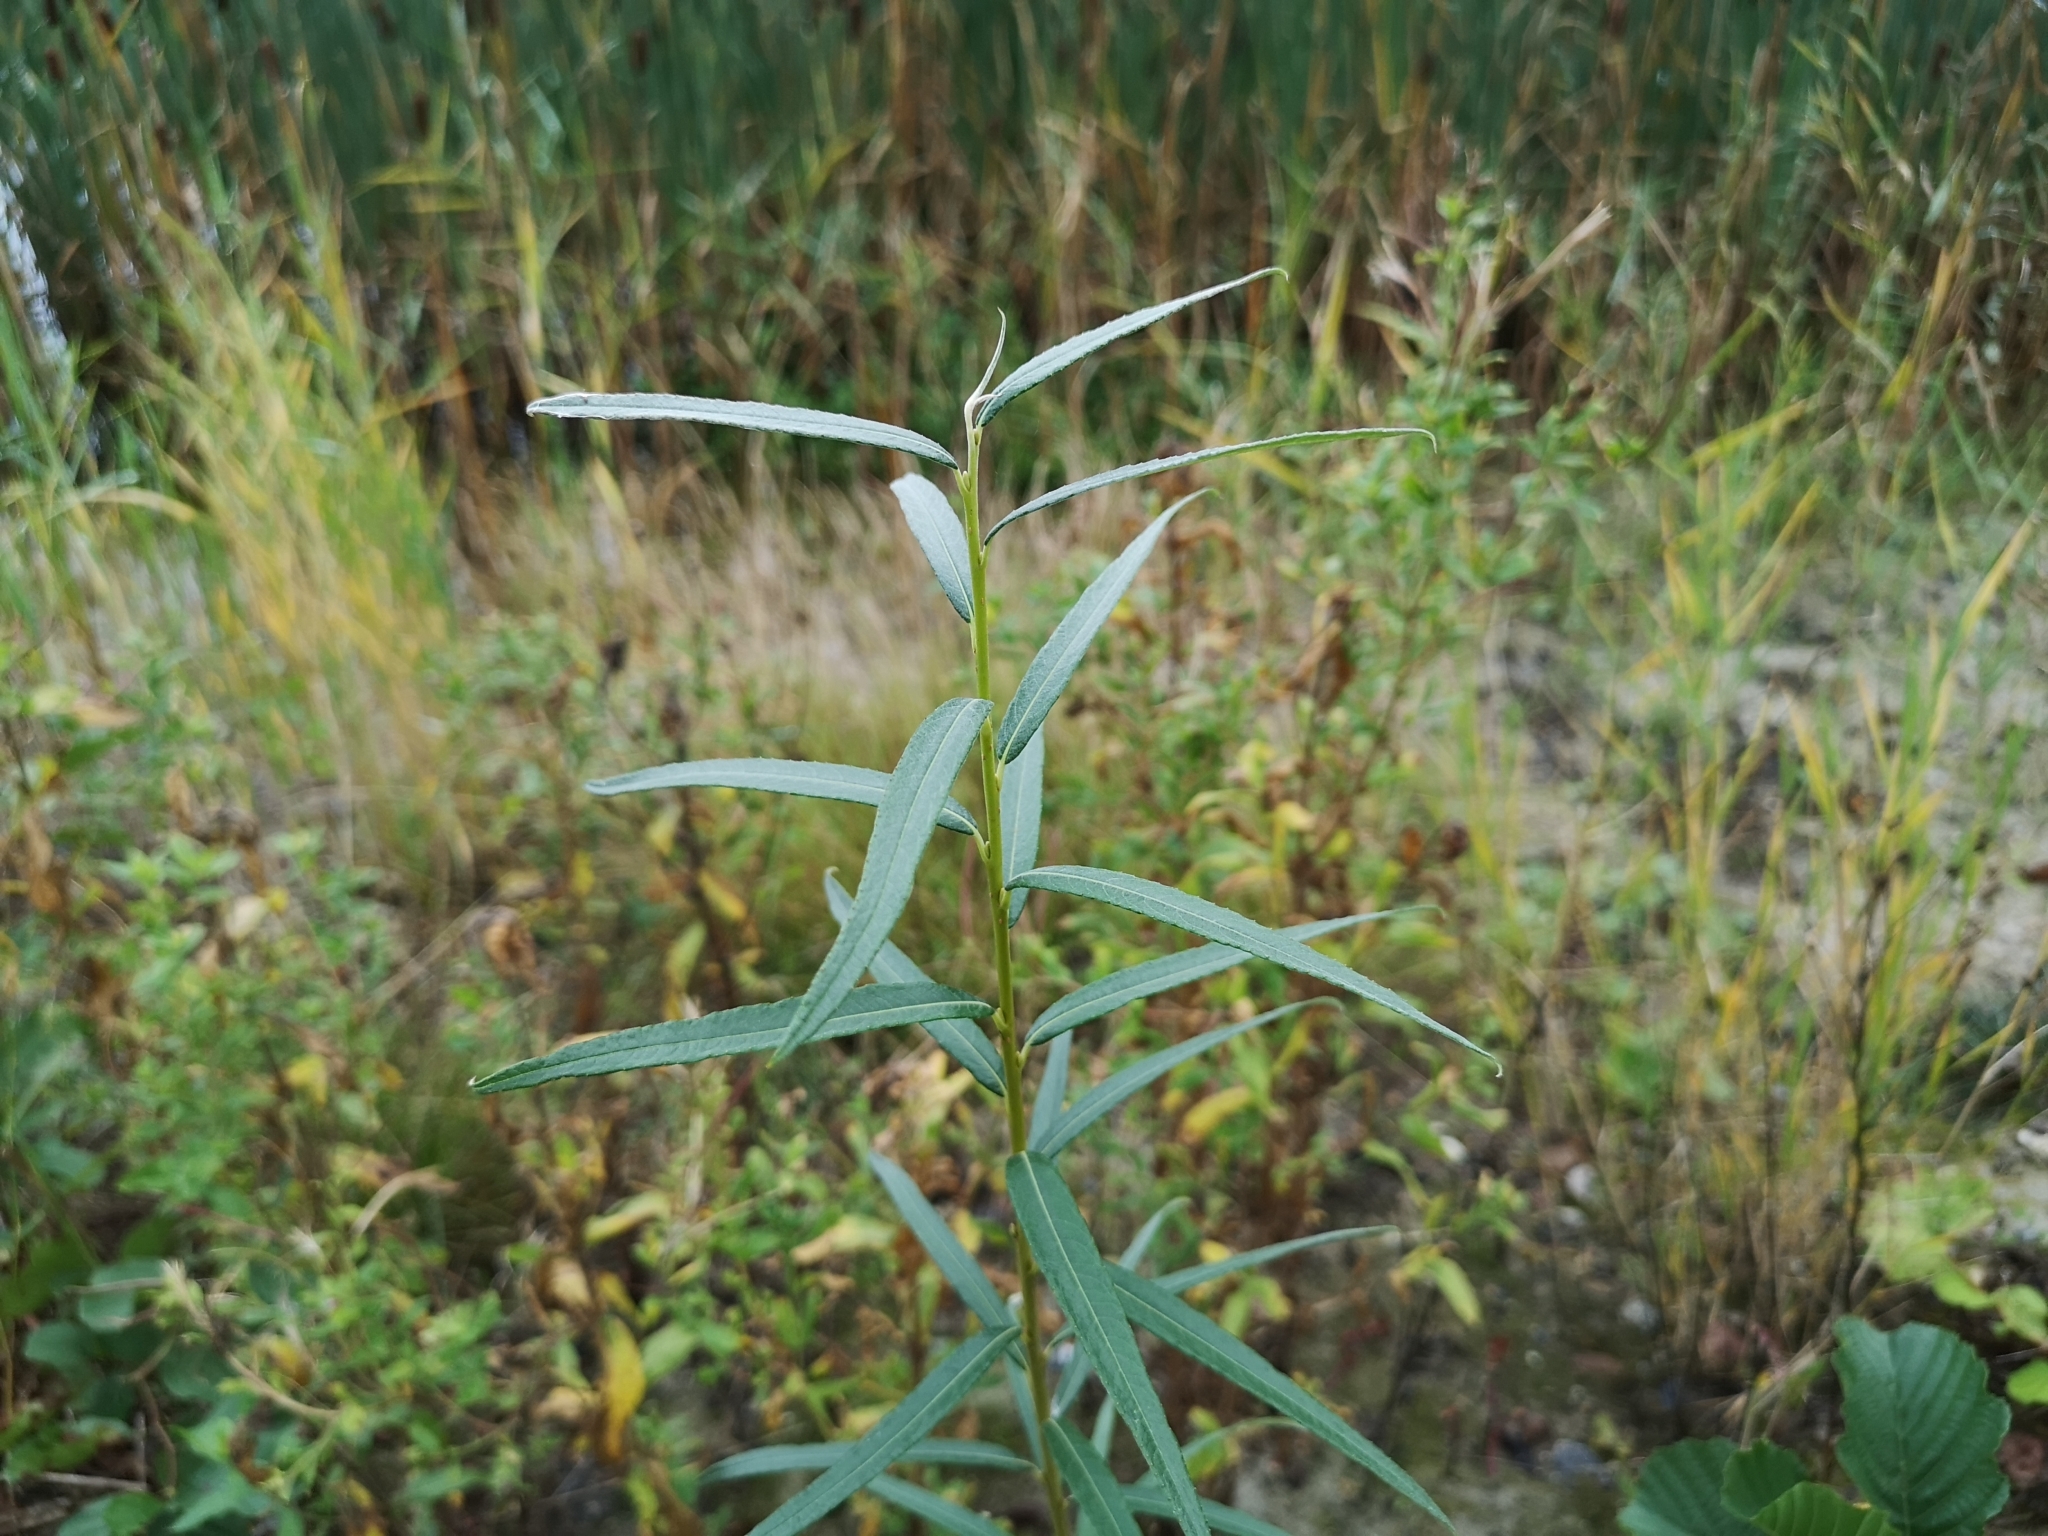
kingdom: Plantae
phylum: Tracheophyta
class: Magnoliopsida
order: Malpighiales
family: Salicaceae
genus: Salix
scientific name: Salix viminalis
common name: Osier
